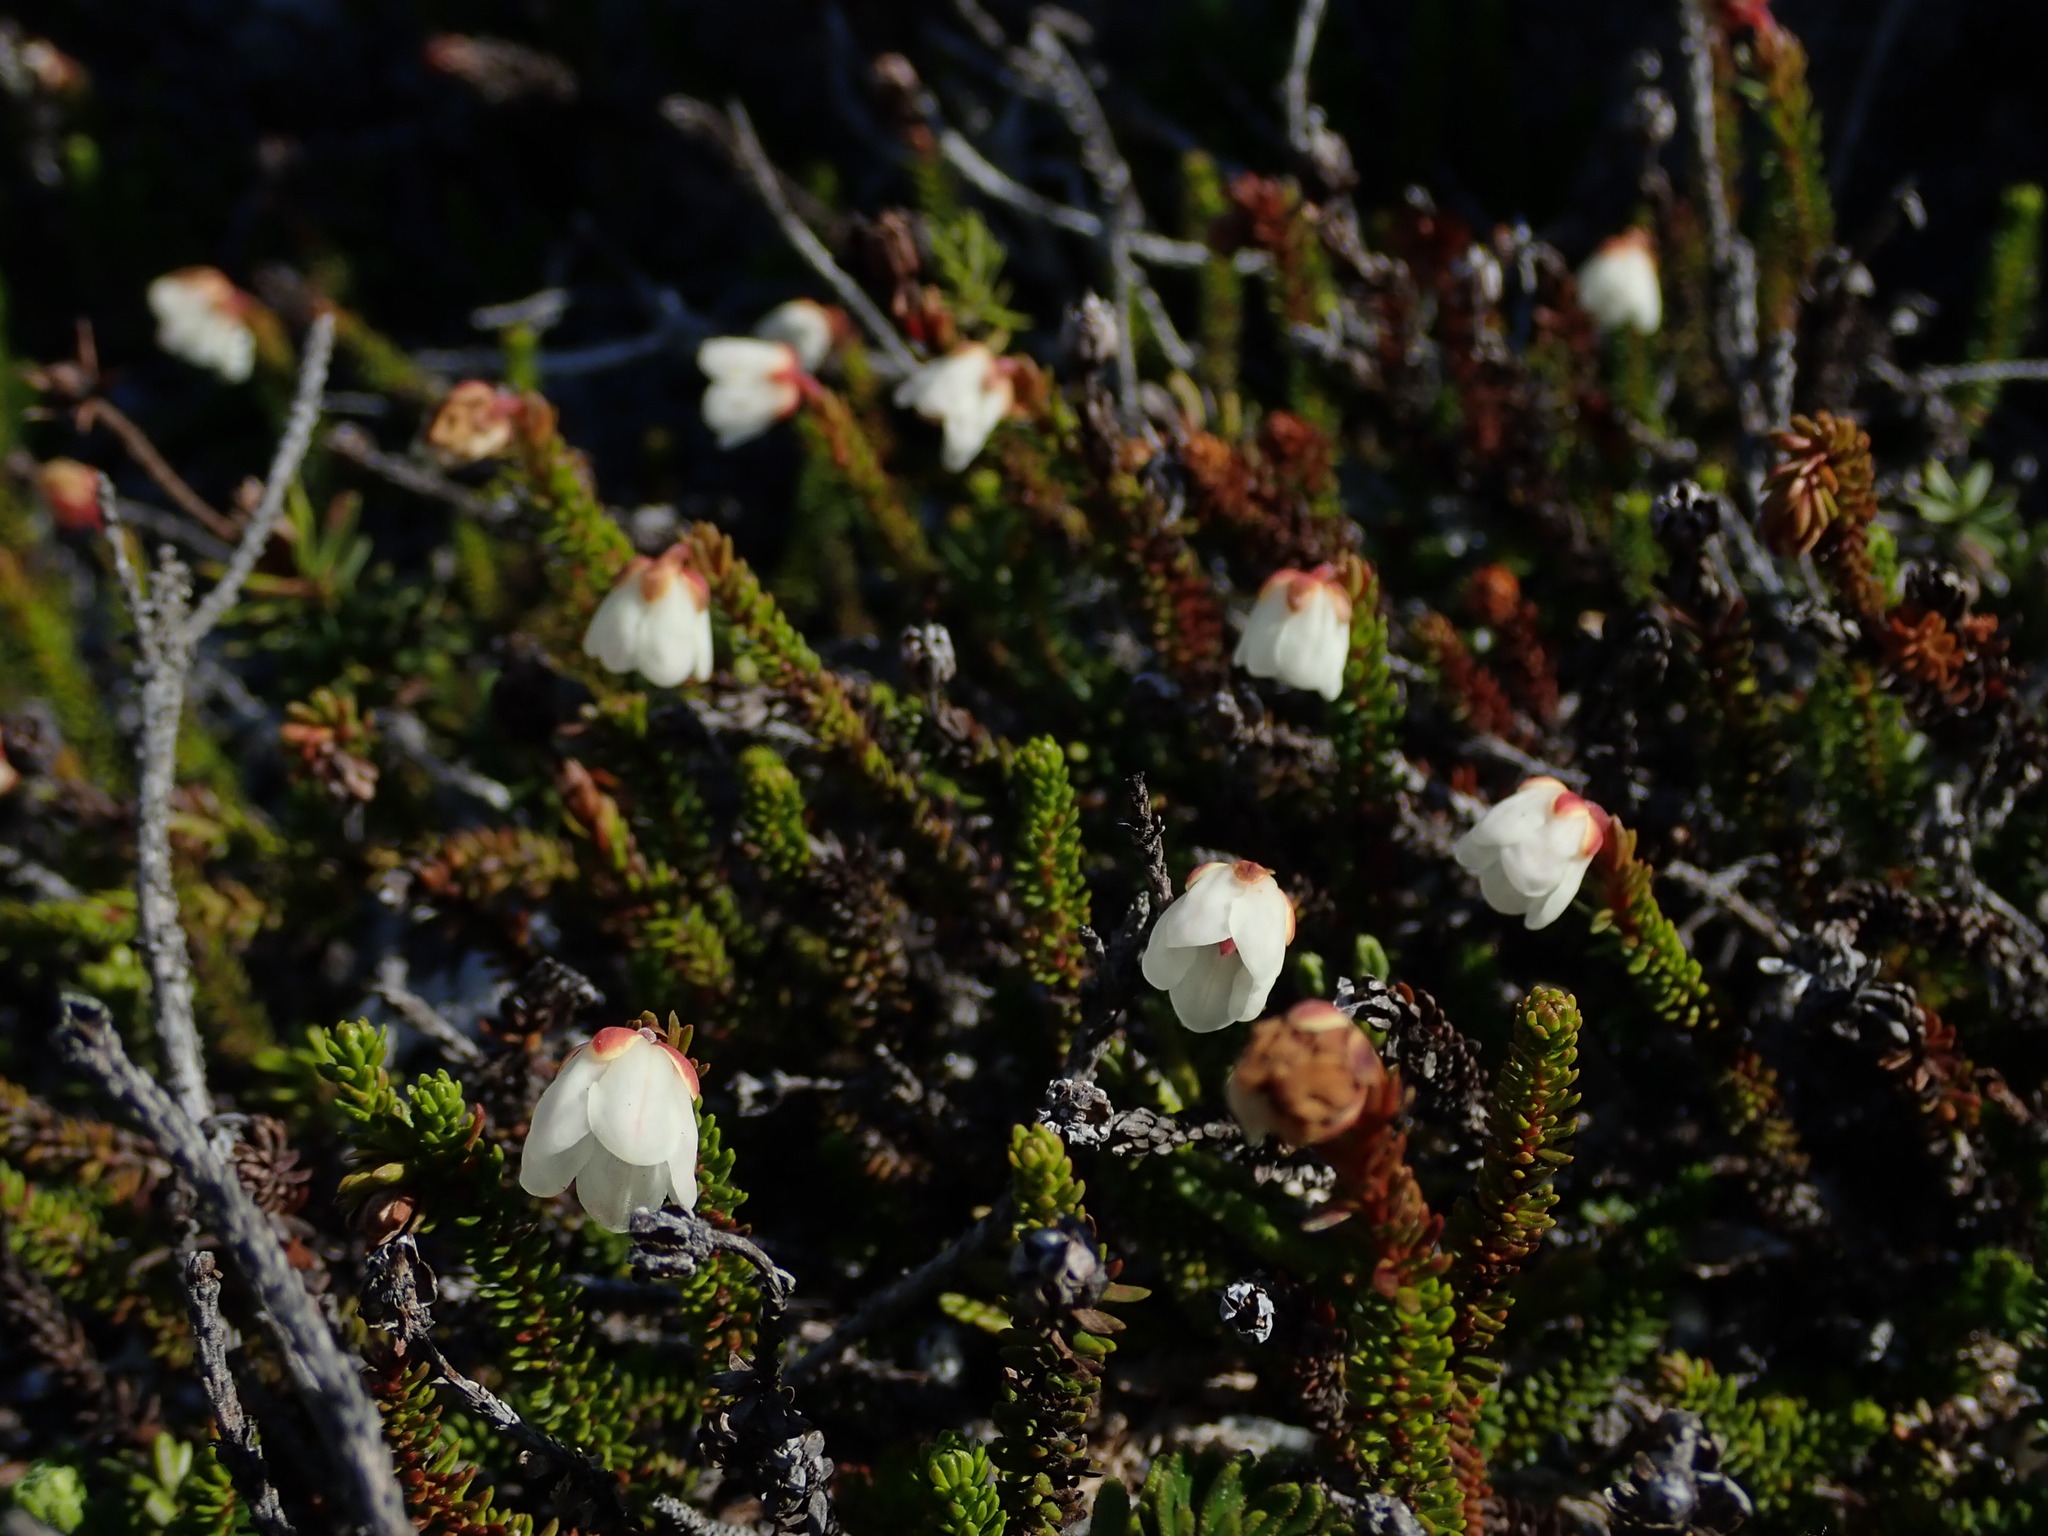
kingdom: Plantae
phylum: Tracheophyta
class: Magnoliopsida
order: Ericales
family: Ericaceae
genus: Harrimanella
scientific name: Harrimanella stelleriana
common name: Alaska bell heather
